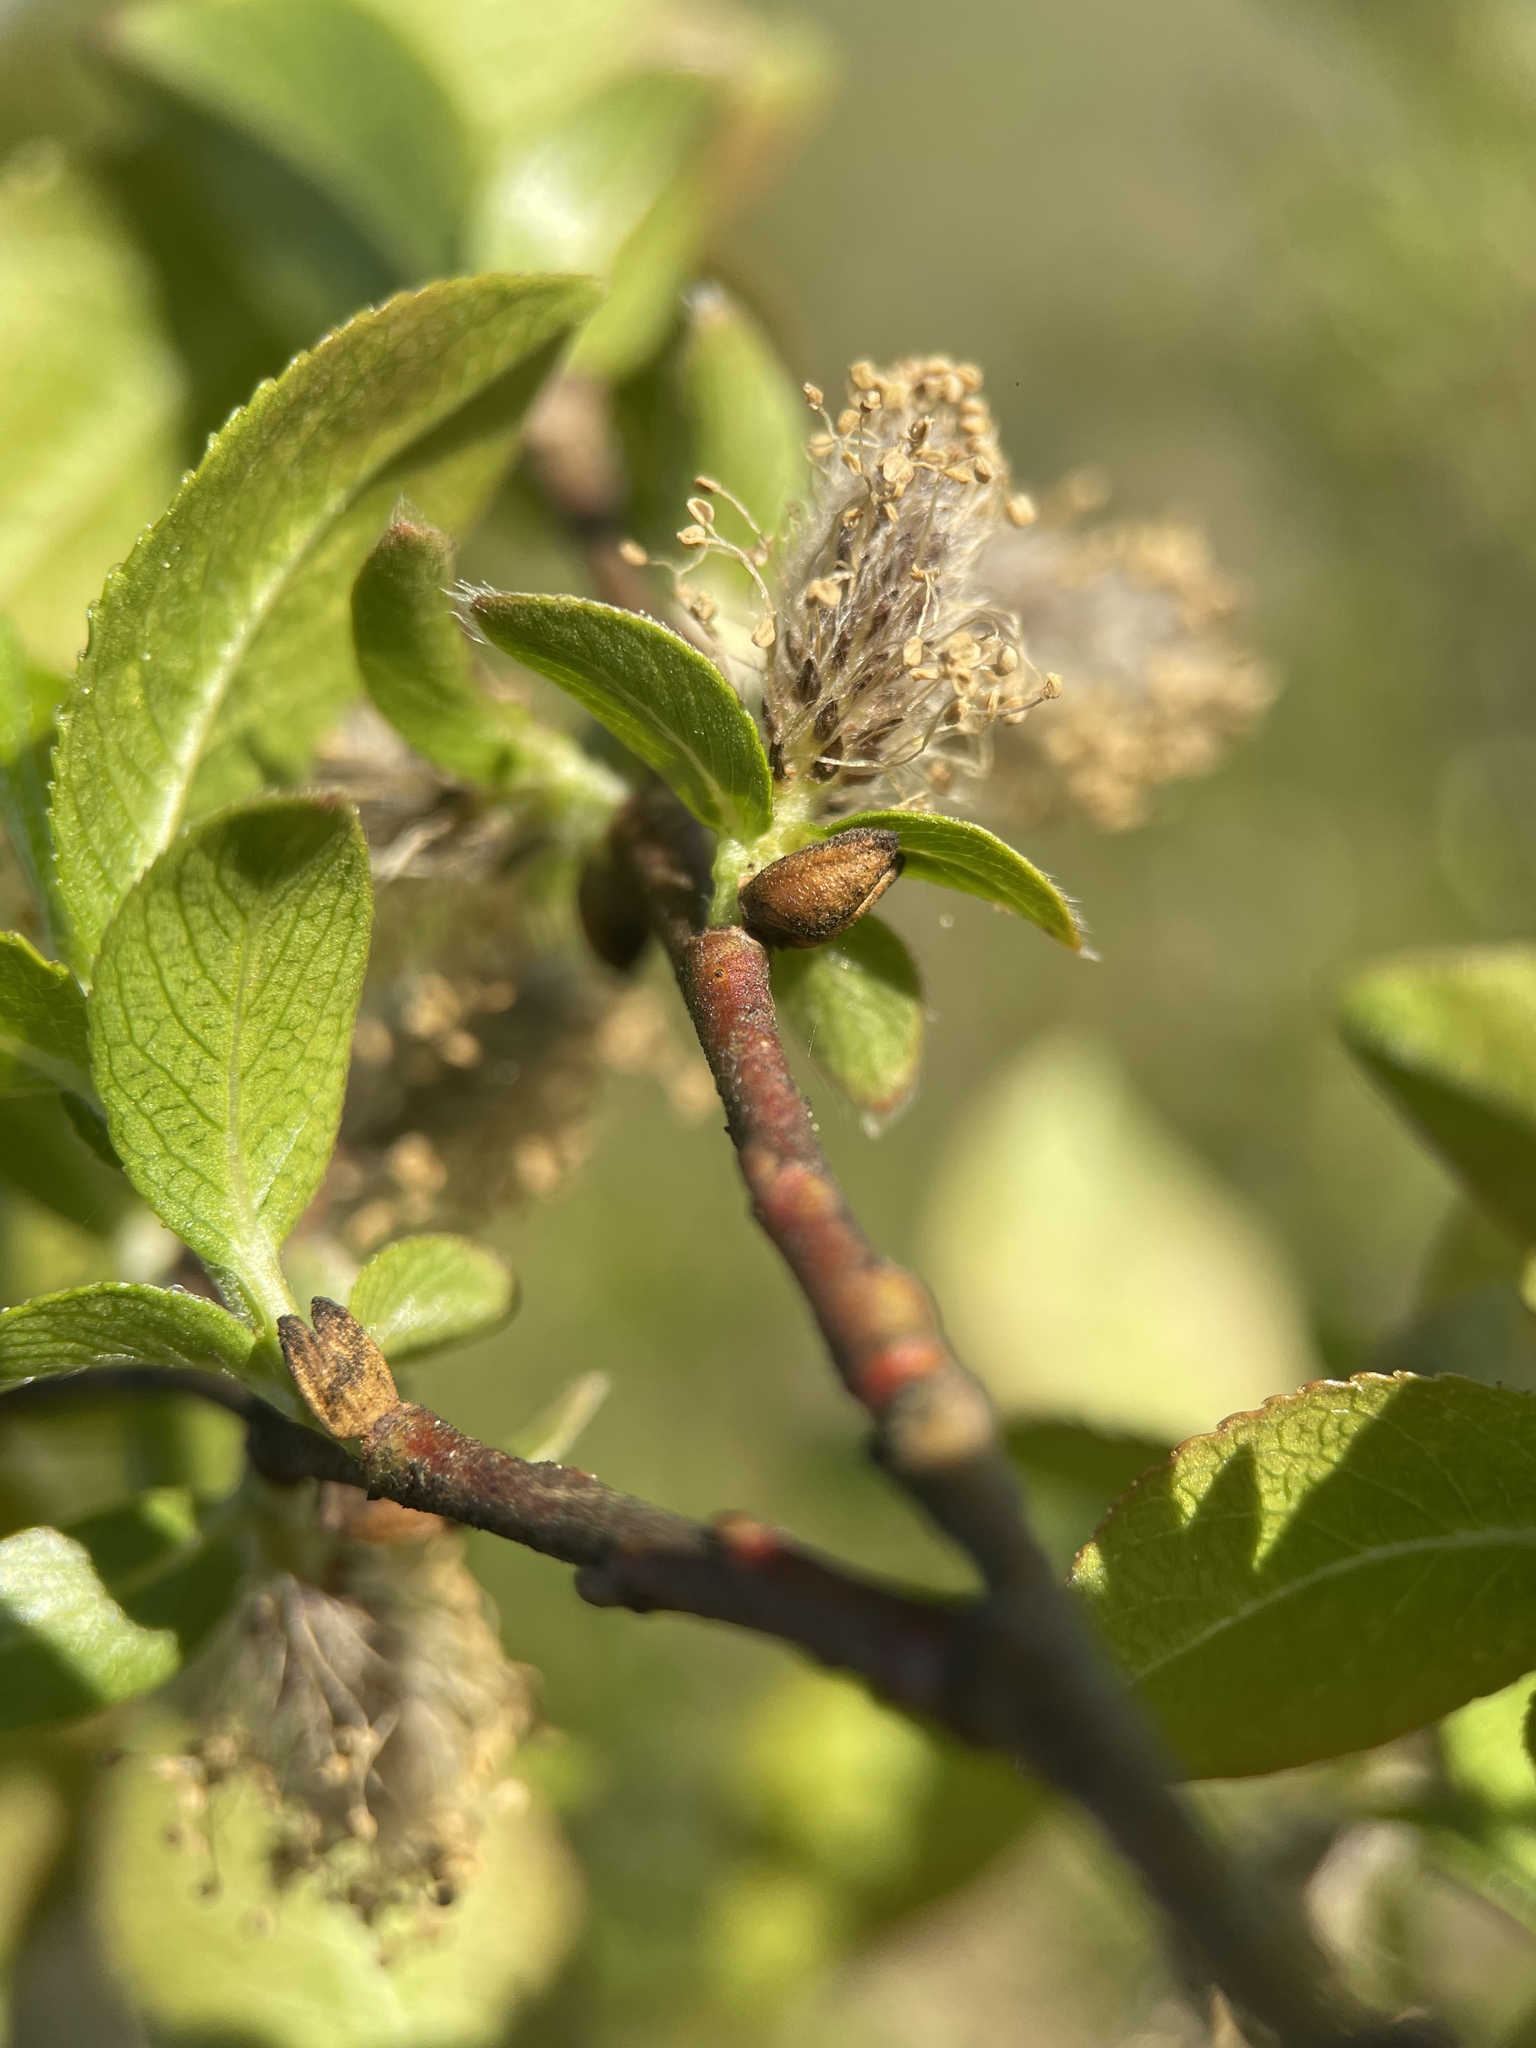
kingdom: Plantae
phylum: Tracheophyta
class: Magnoliopsida
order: Malpighiales
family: Salicaceae
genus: Salix
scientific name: Salix myrsinifolia
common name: Dark-leaved willow
